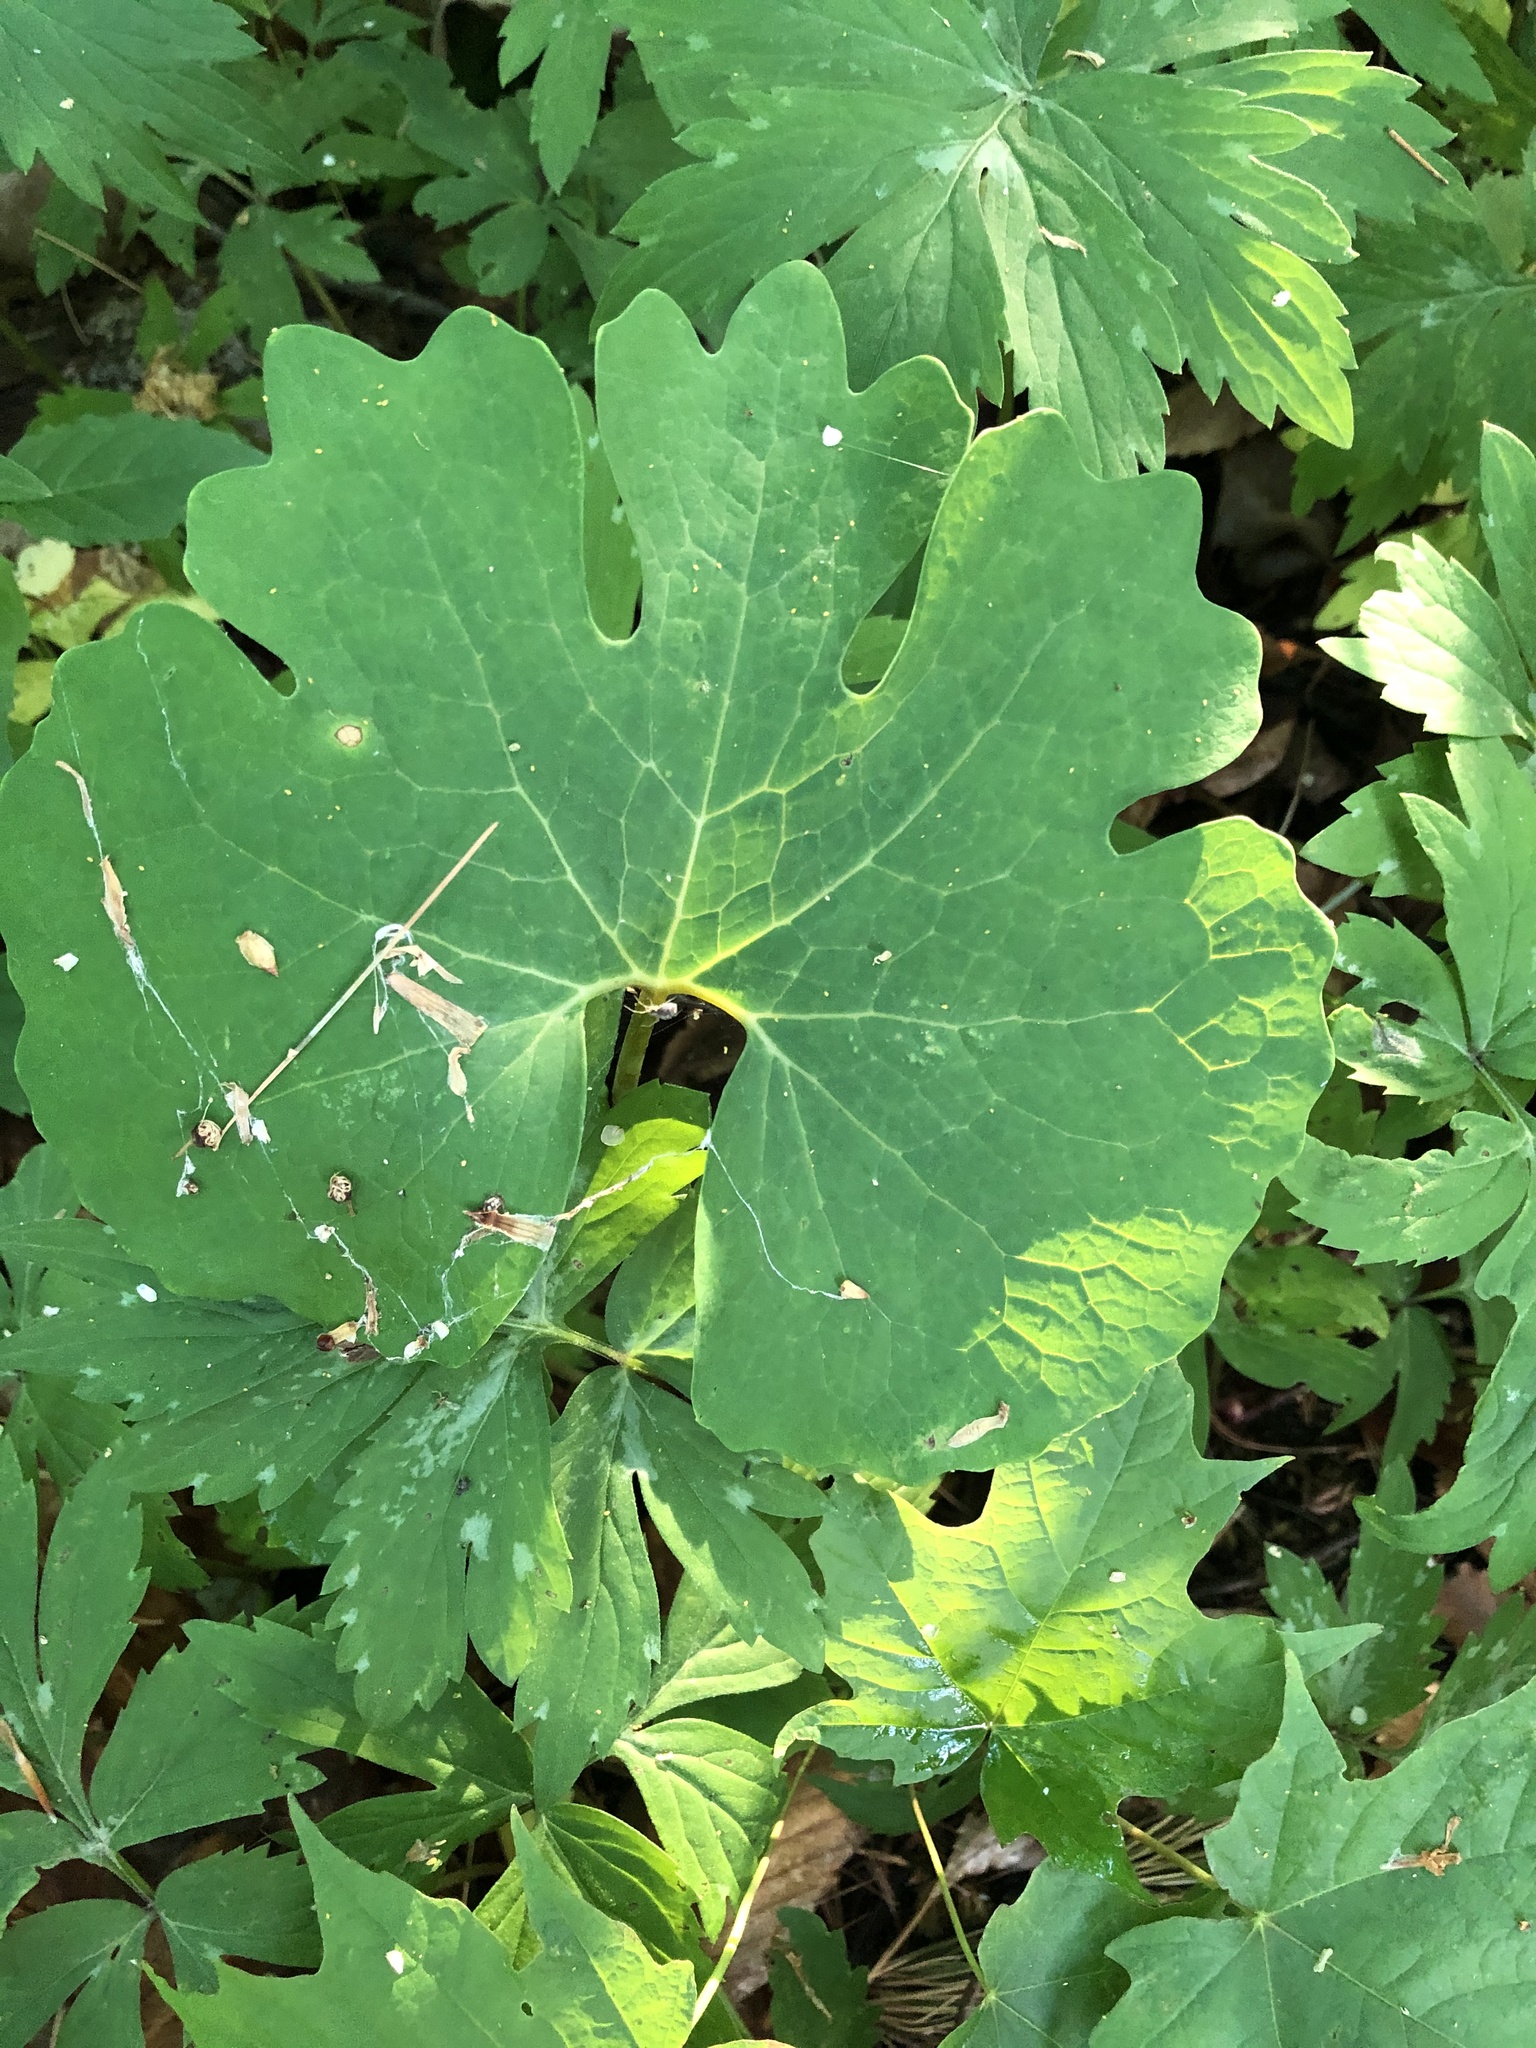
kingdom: Plantae
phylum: Tracheophyta
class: Magnoliopsida
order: Ranunculales
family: Papaveraceae
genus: Sanguinaria
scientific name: Sanguinaria canadensis
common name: Bloodroot
